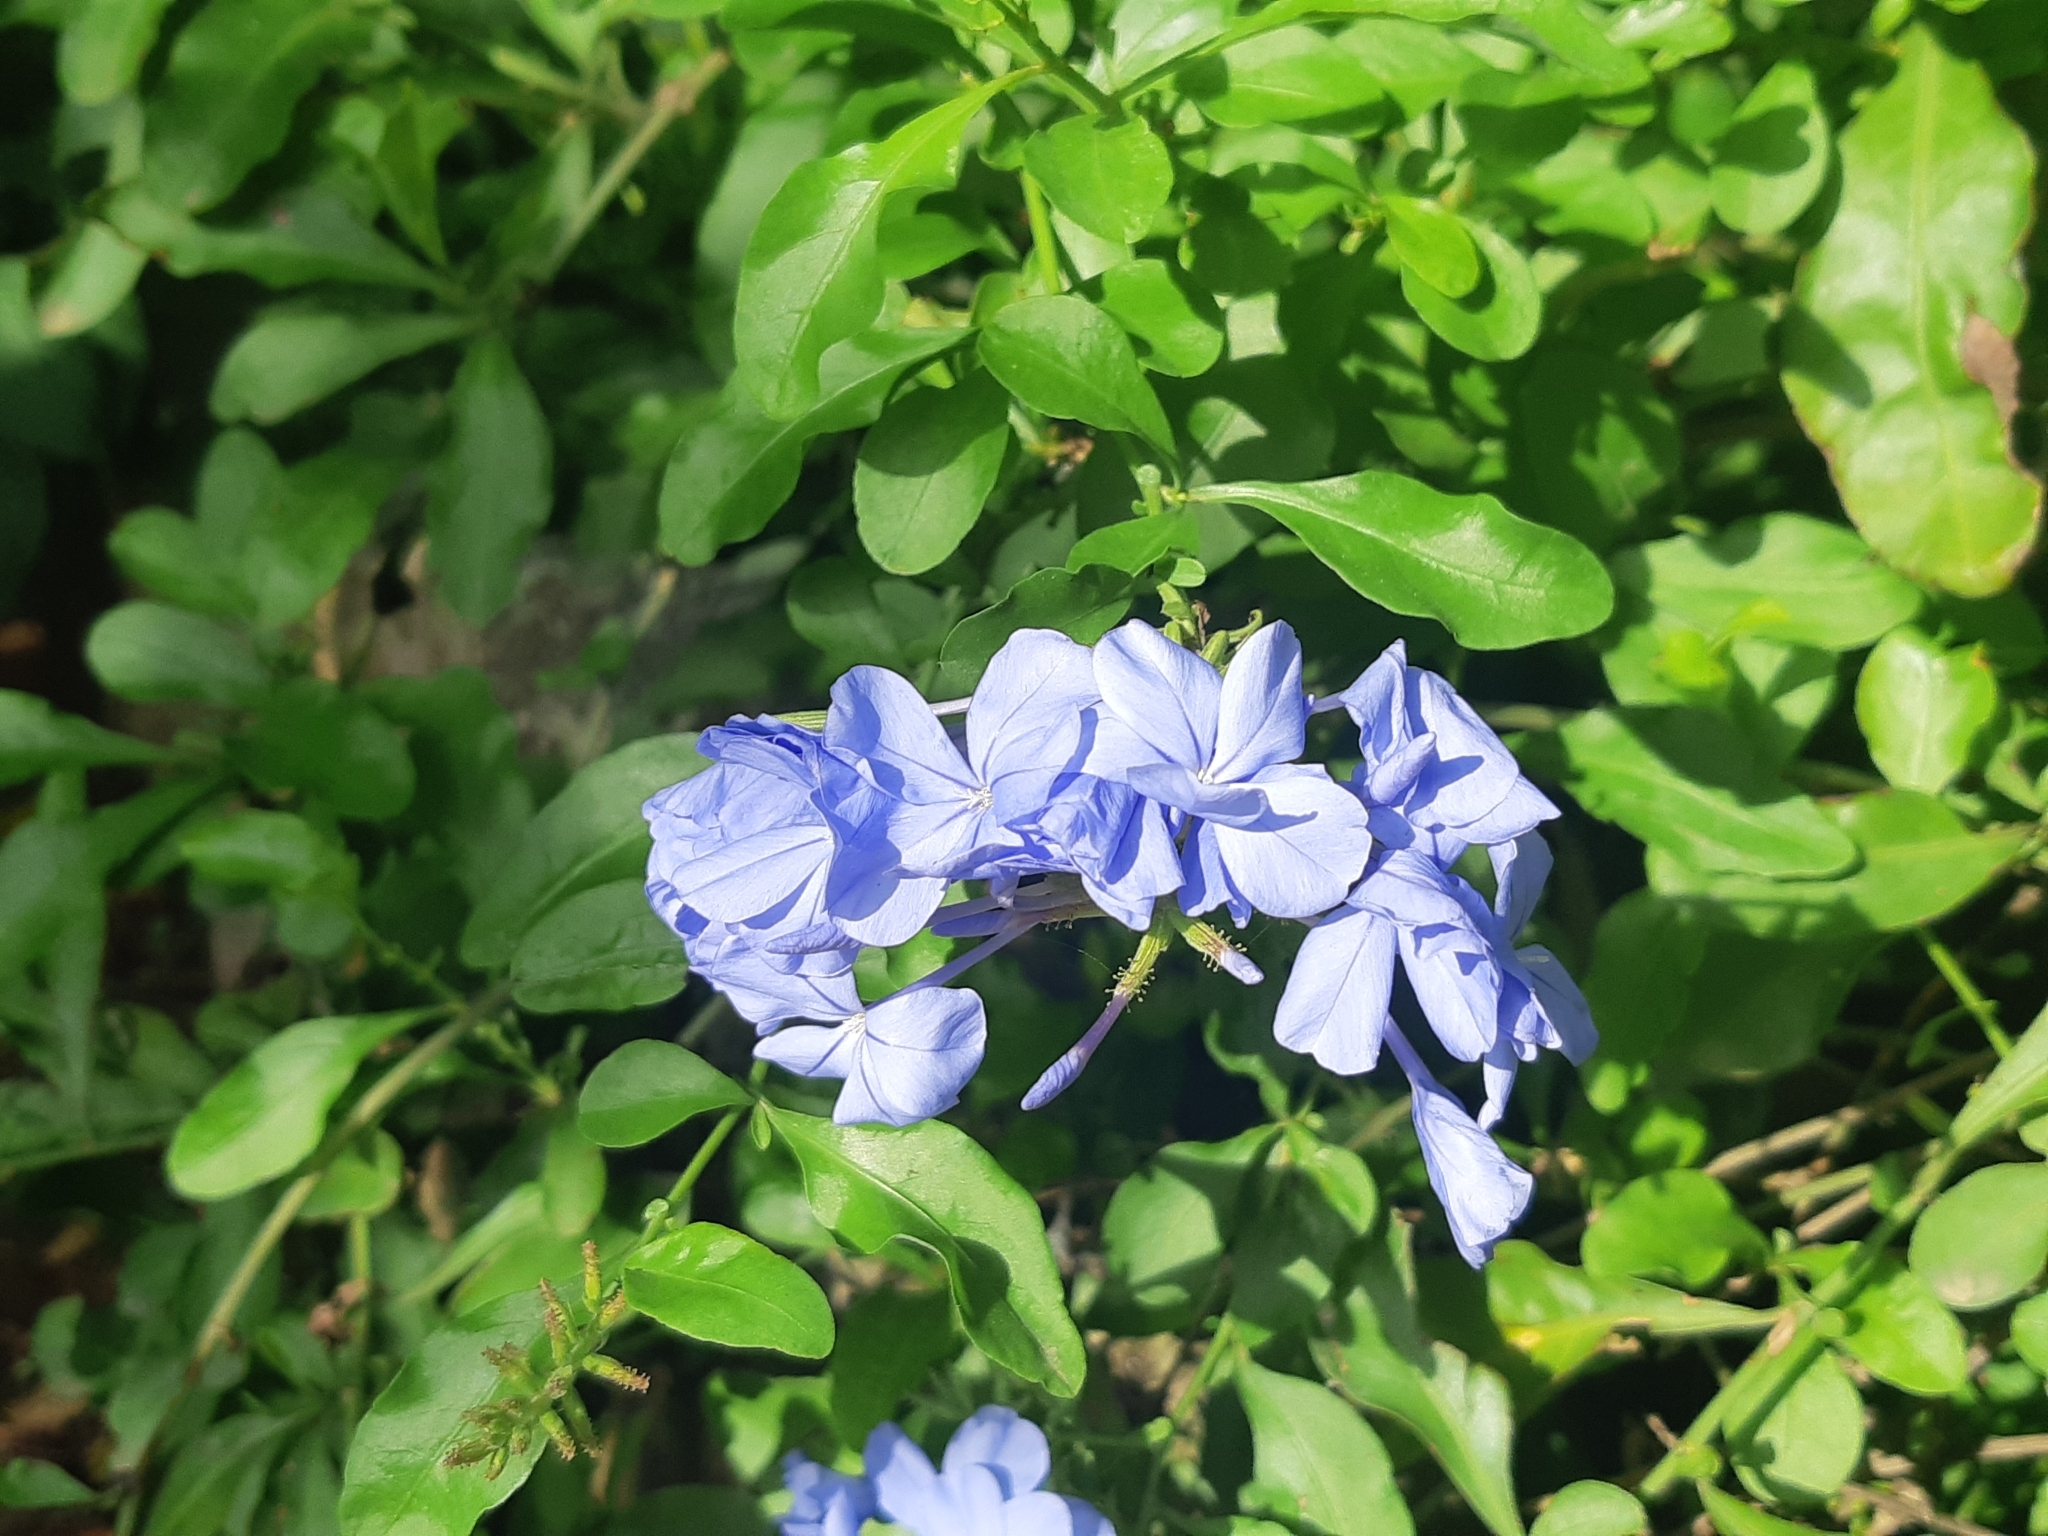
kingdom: Plantae
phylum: Tracheophyta
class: Magnoliopsida
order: Caryophyllales
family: Plumbaginaceae
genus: Plumbago
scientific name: Plumbago auriculata
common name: Cape leadwort
